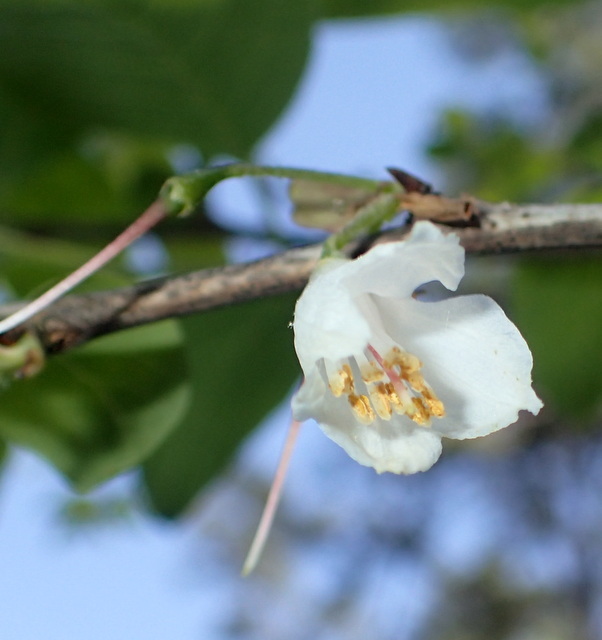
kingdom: Plantae
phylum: Tracheophyta
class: Magnoliopsida
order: Ericales
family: Styracaceae
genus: Halesia
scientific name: Halesia diptera
